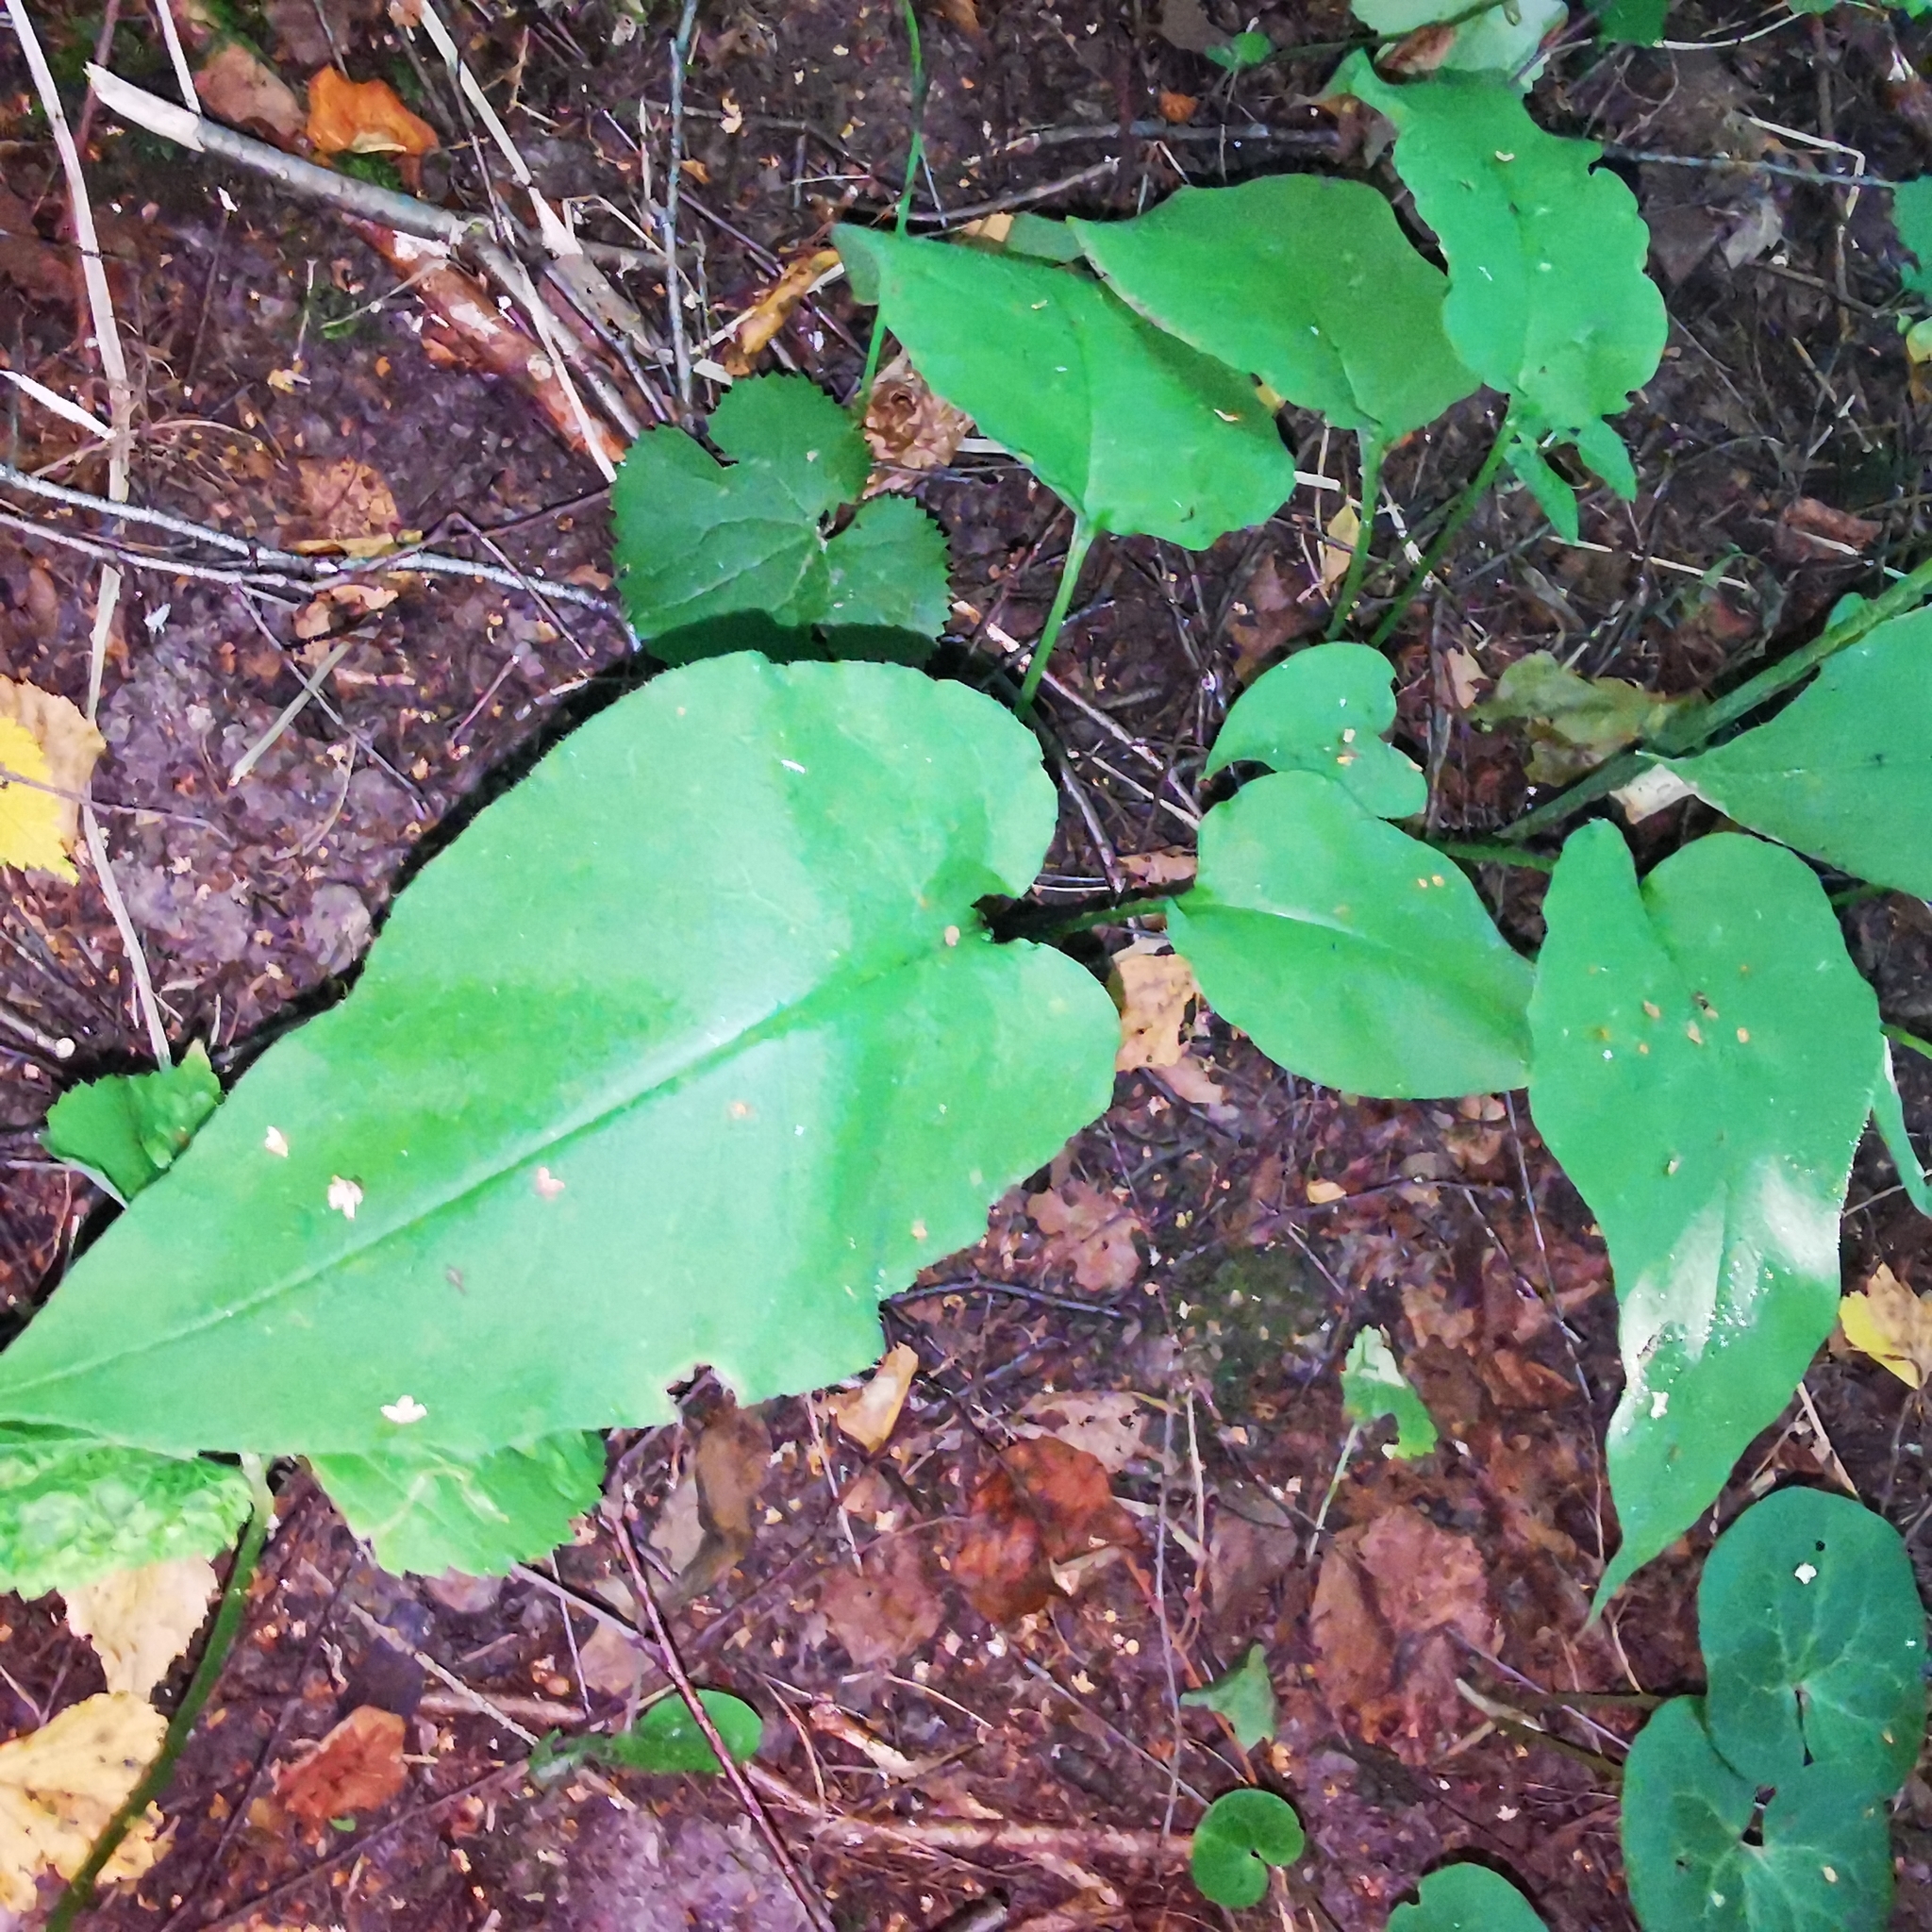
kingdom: Plantae
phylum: Tracheophyta
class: Magnoliopsida
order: Boraginales
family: Boraginaceae
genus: Pulmonaria
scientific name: Pulmonaria obscura
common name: Suffolk lungwort
